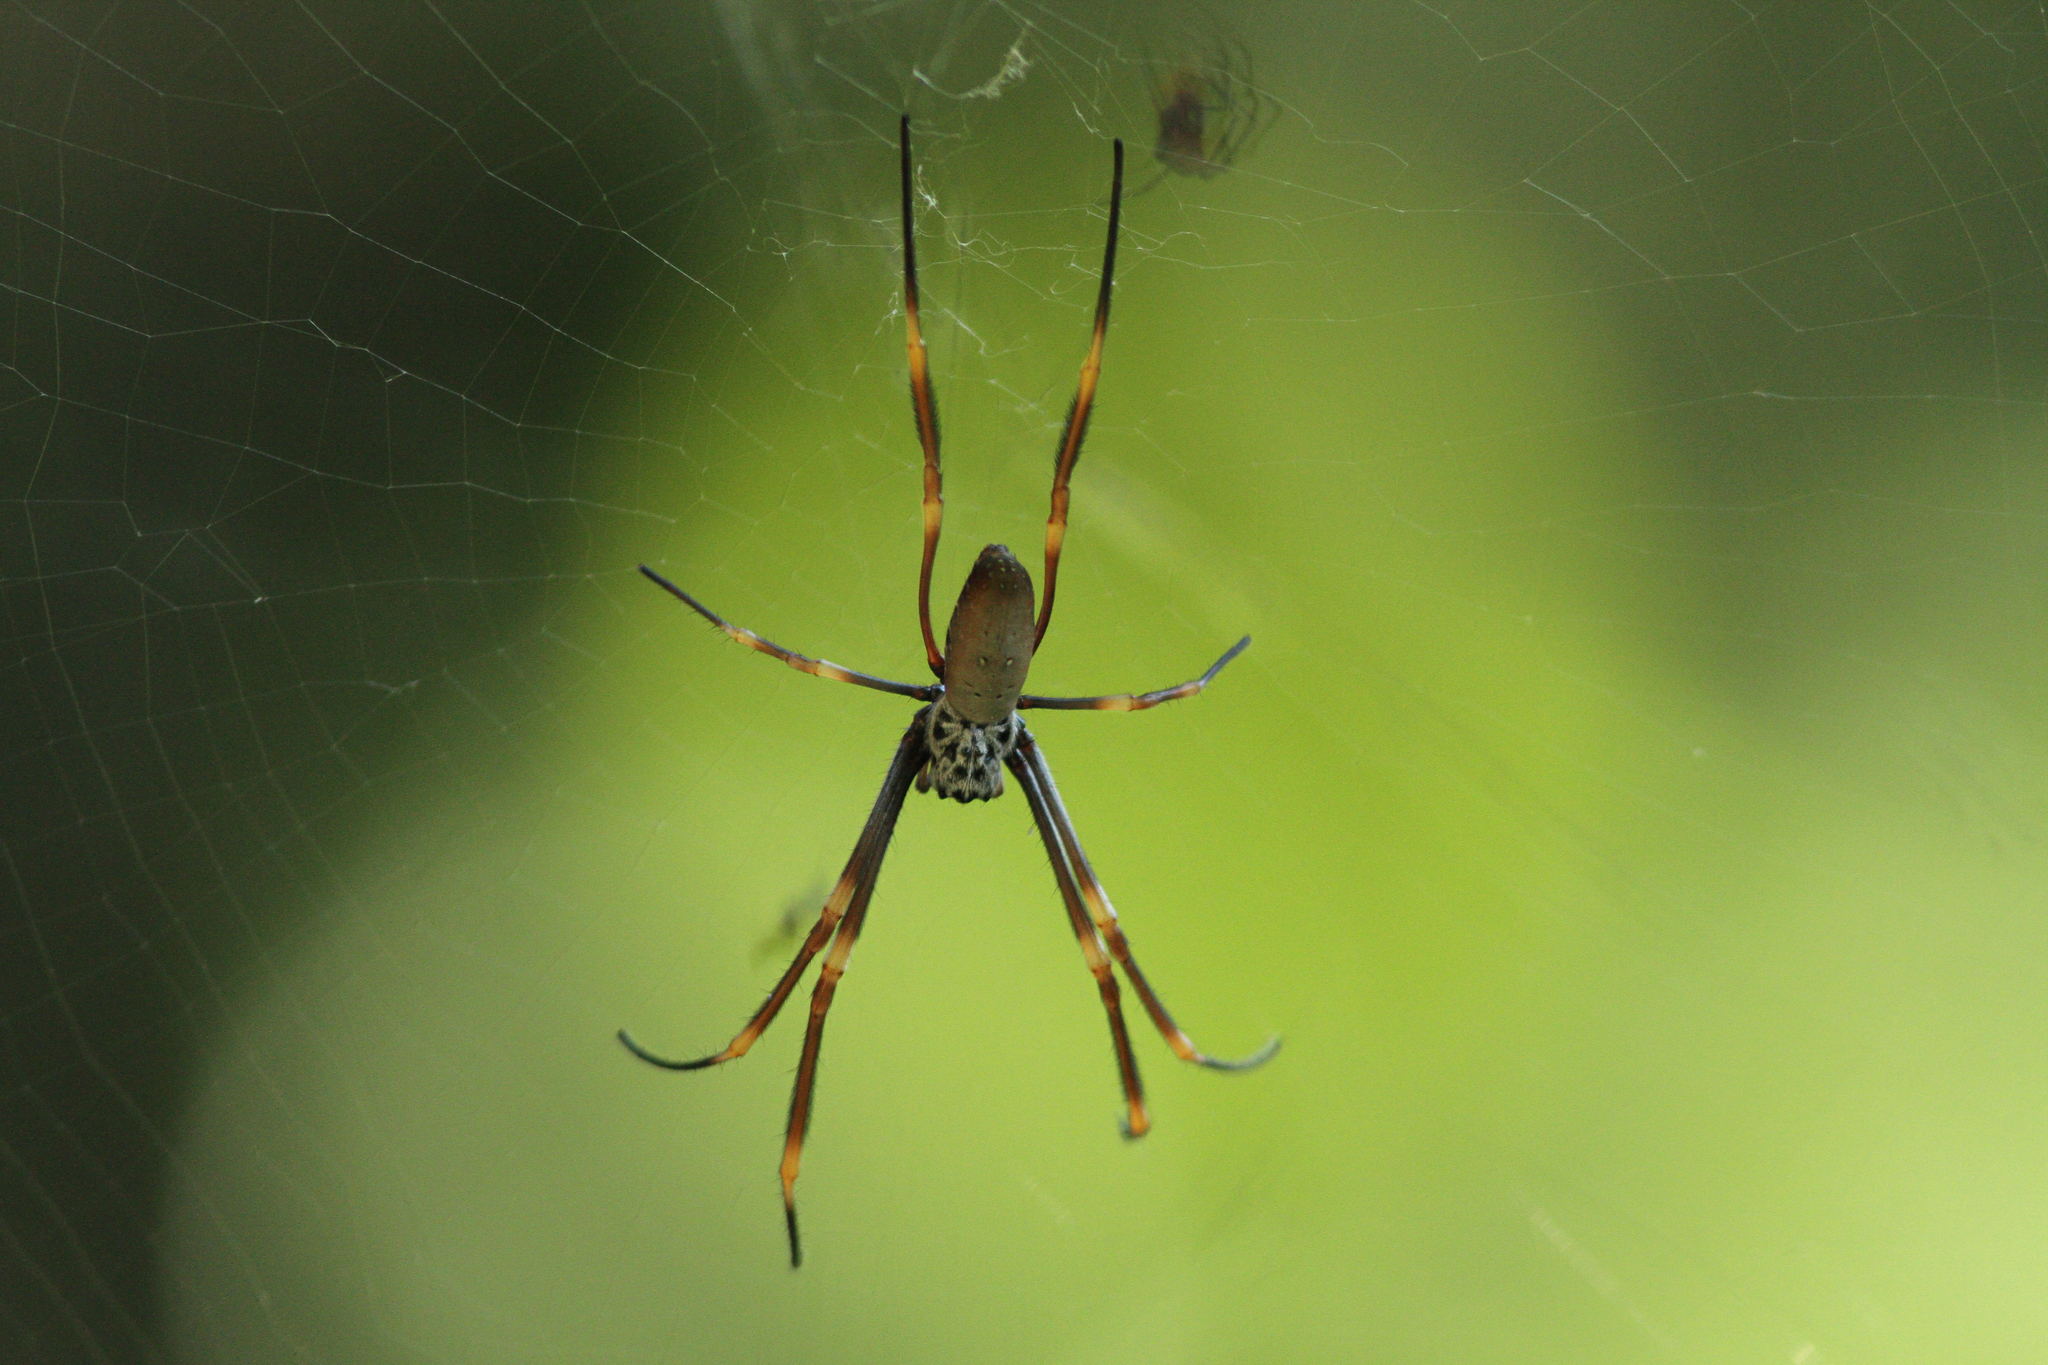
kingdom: Animalia
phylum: Arthropoda
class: Arachnida
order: Araneae
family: Araneidae
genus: Trichonephila
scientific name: Trichonephila plumipes
